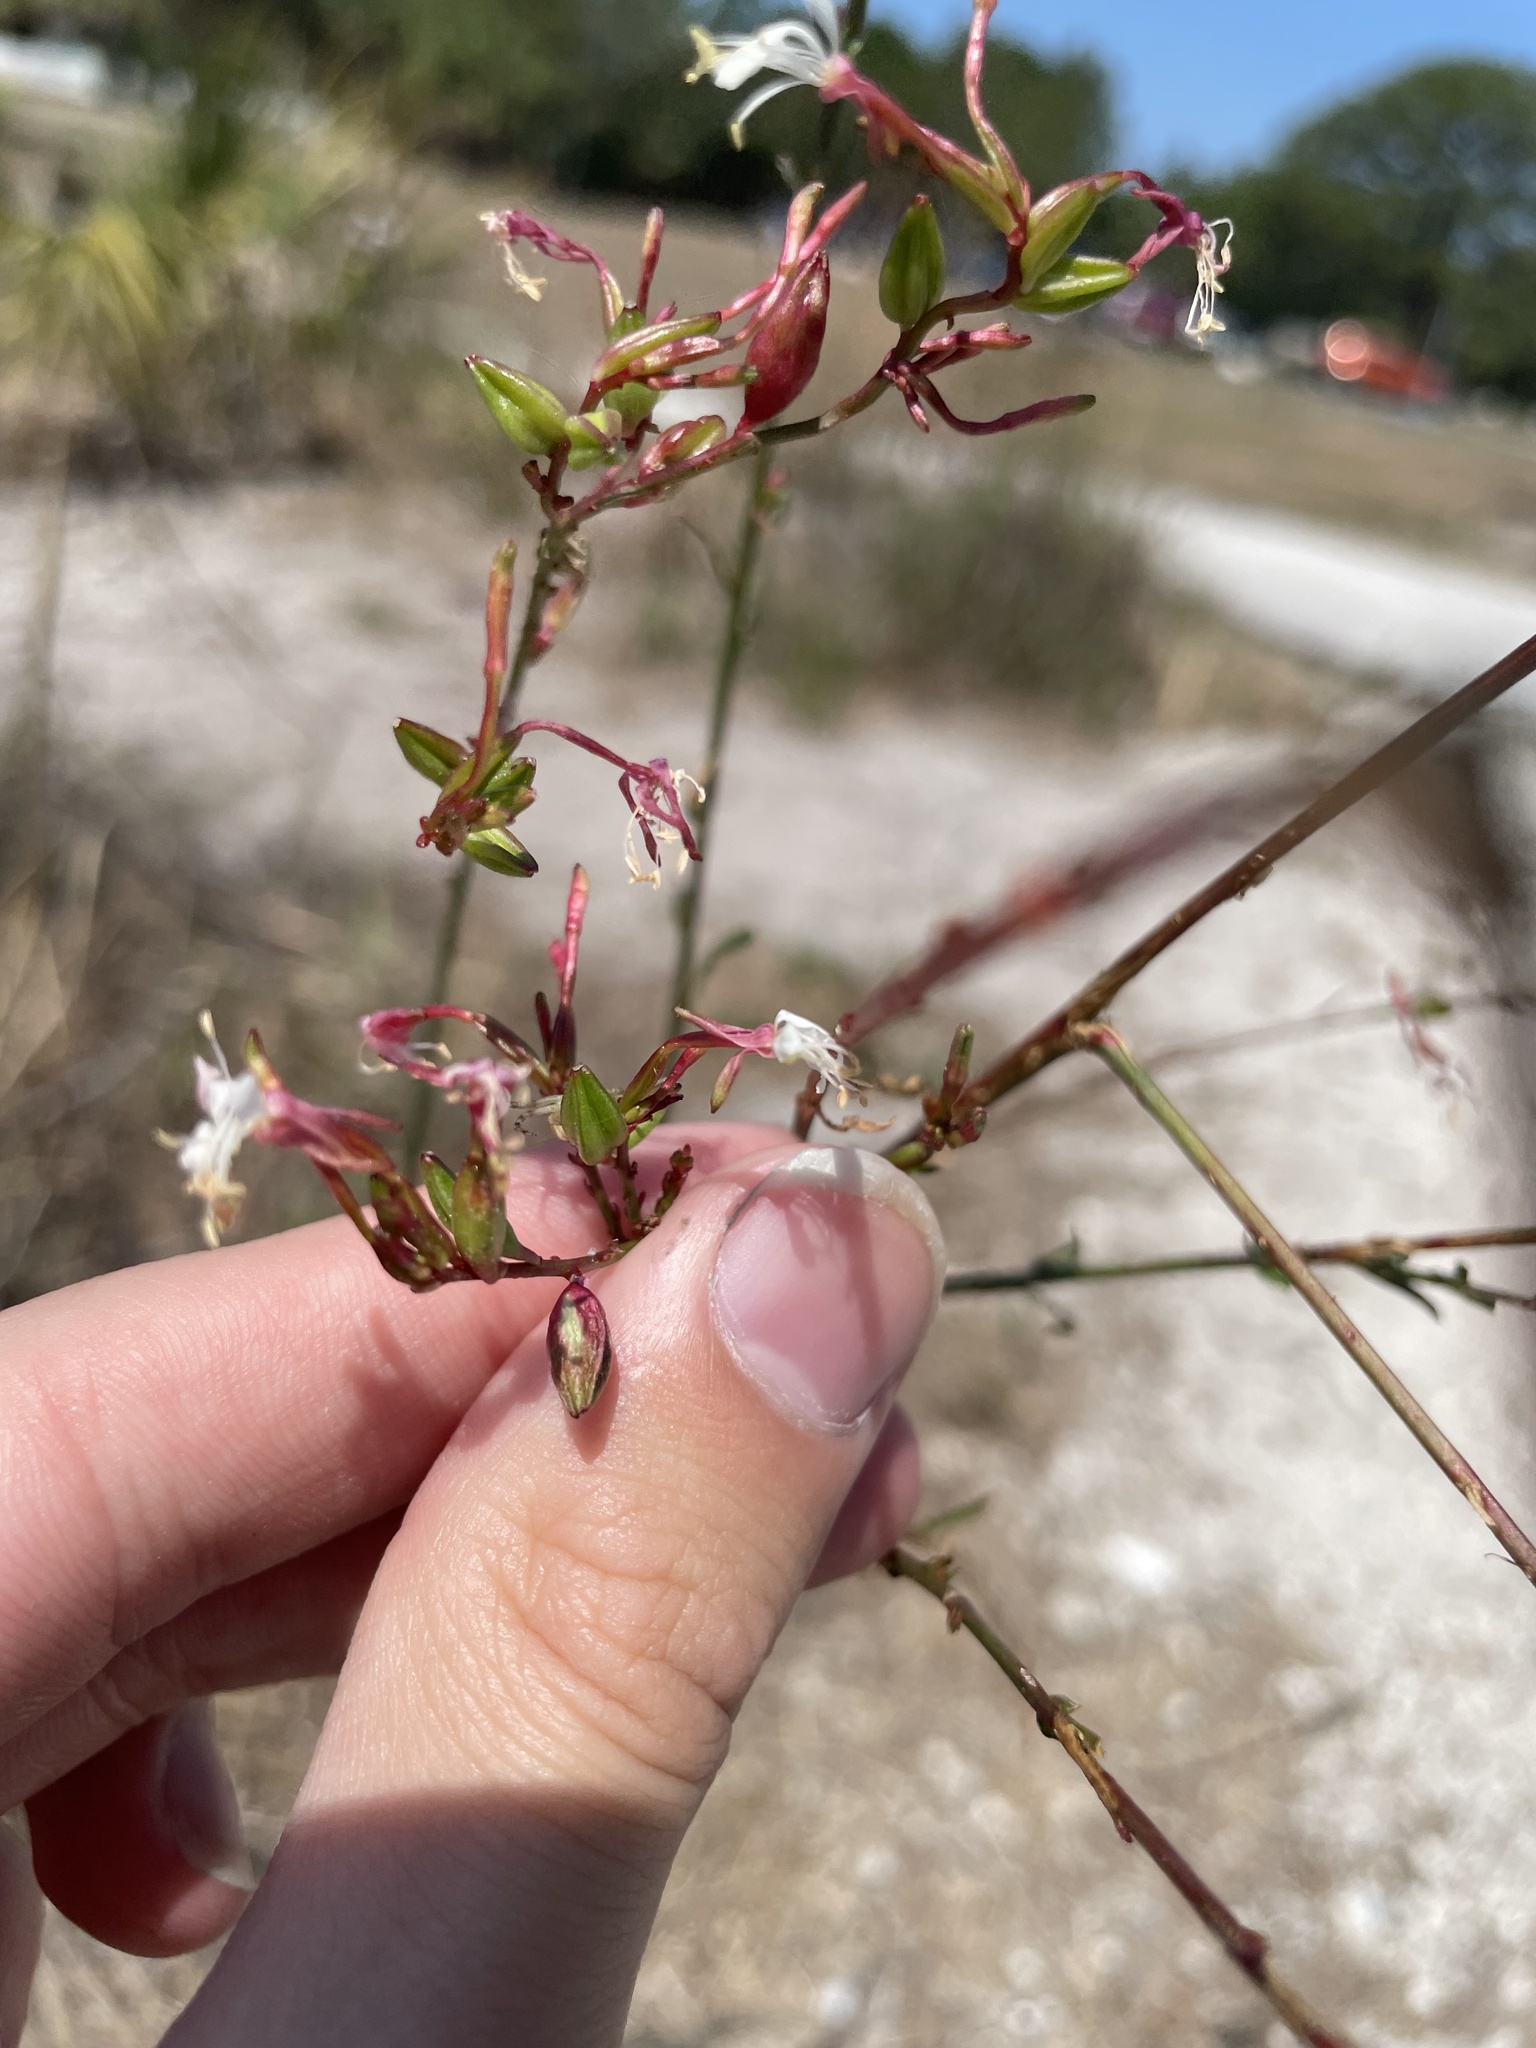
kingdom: Plantae
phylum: Tracheophyta
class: Magnoliopsida
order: Myrtales
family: Onagraceae
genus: Oenothera
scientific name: Oenothera simulans
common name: Southern beeblossom
